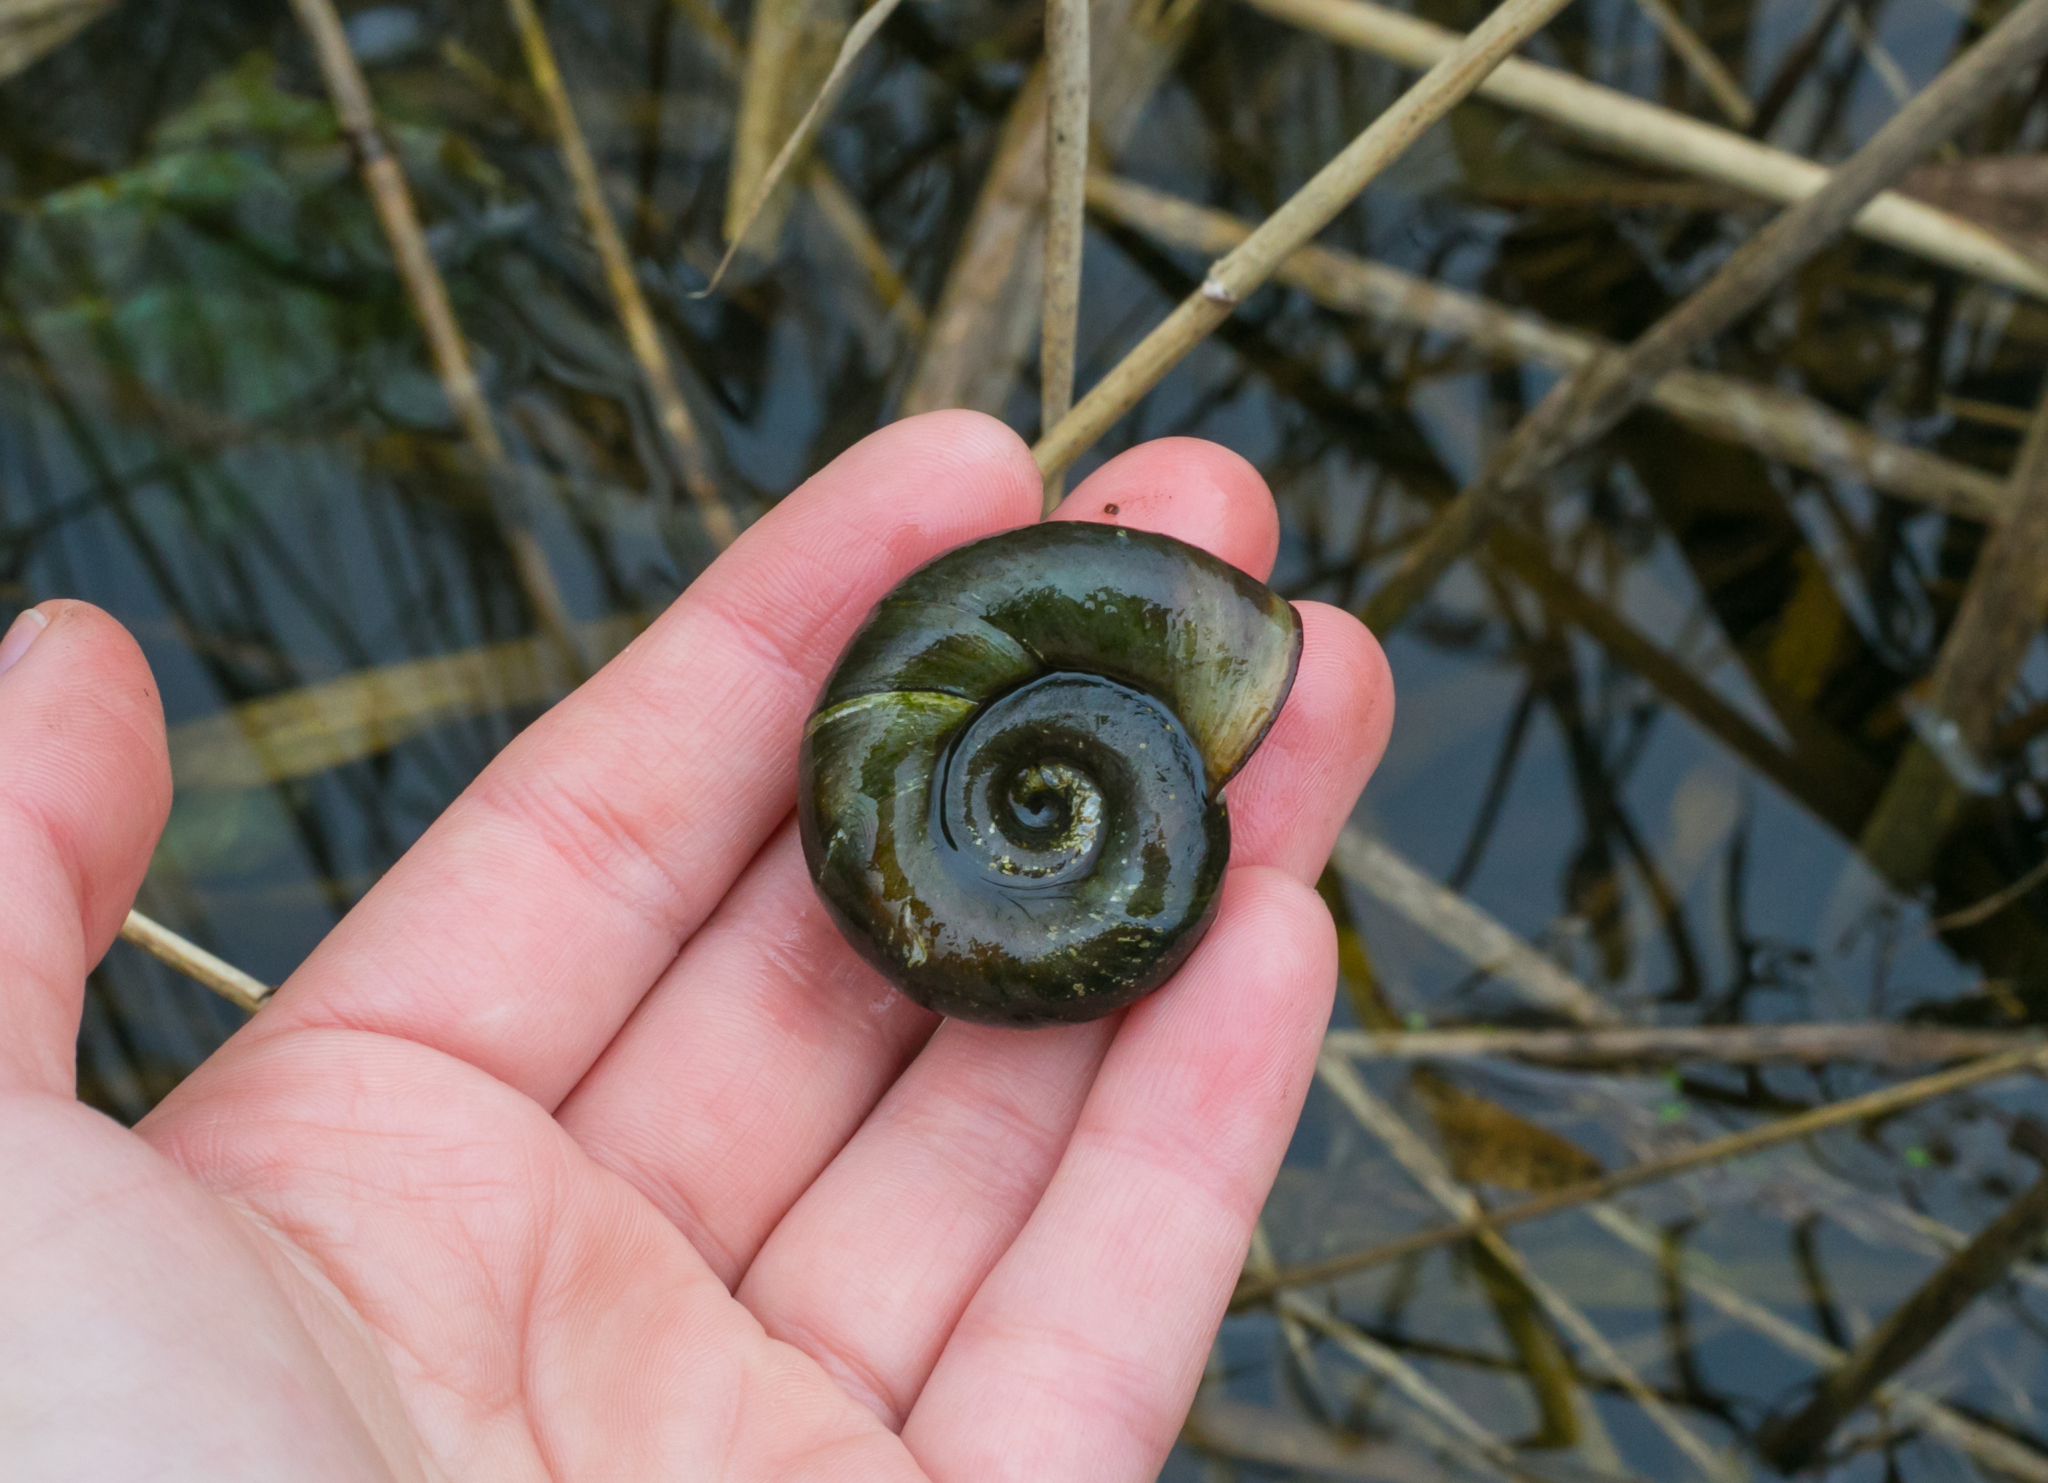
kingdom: Animalia
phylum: Mollusca
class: Gastropoda
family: Planorbidae
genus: Planorbarius
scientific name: Planorbarius corneus
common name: Great ramshorn
